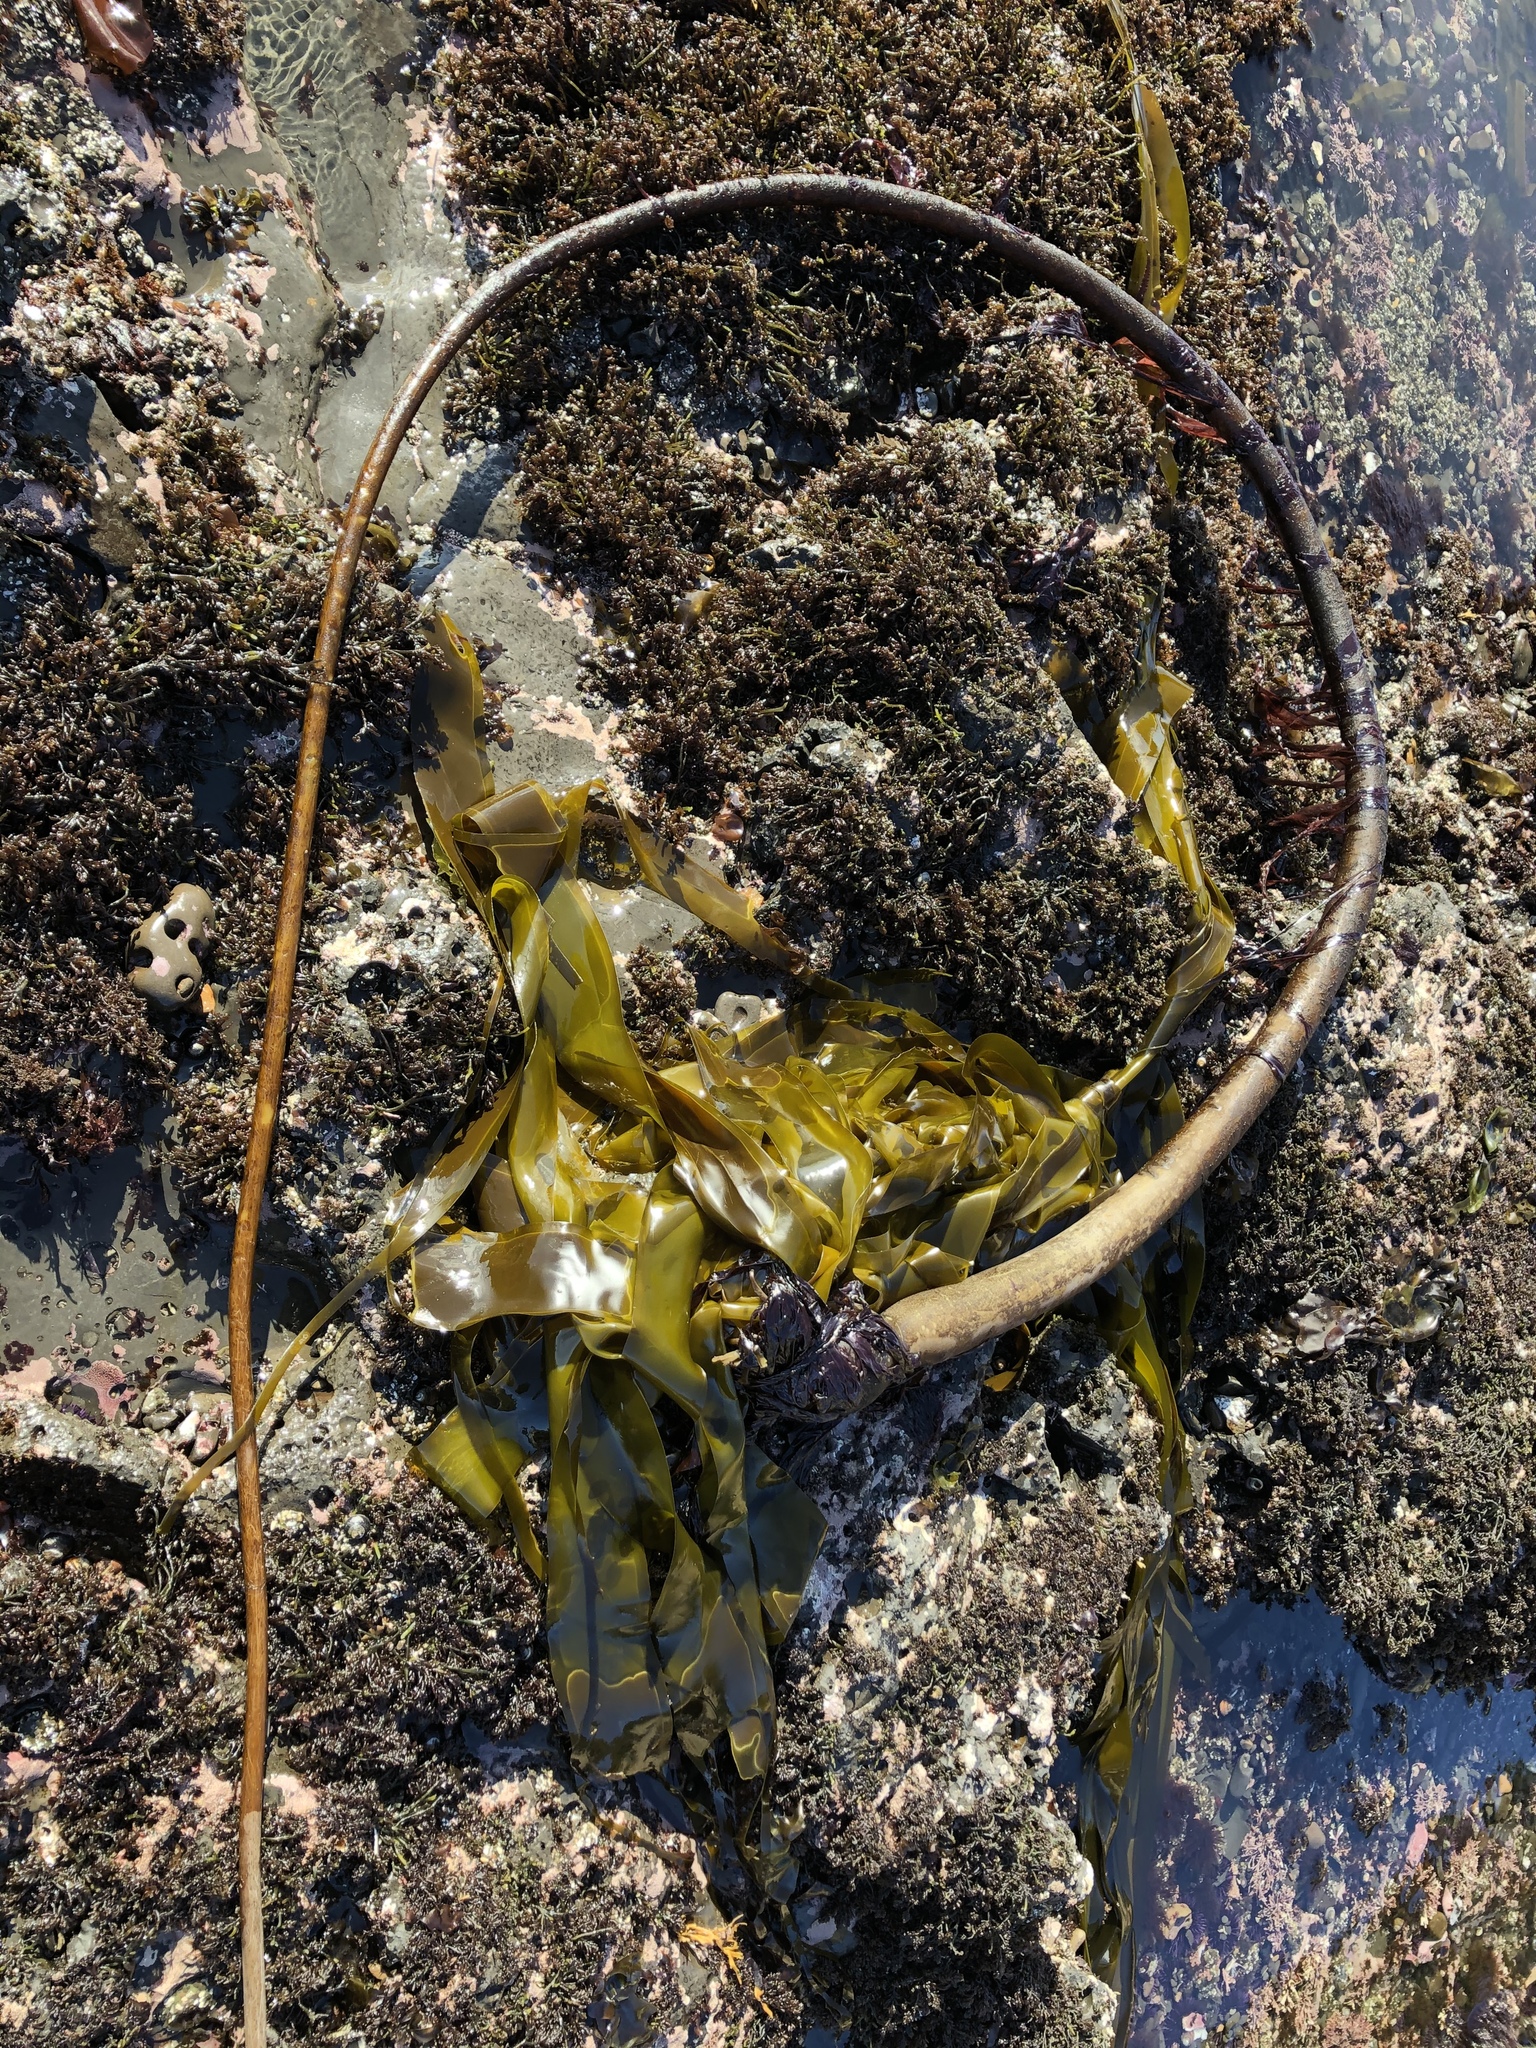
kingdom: Chromista
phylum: Ochrophyta
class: Phaeophyceae
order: Laminariales
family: Laminariaceae
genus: Nereocystis
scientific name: Nereocystis luetkeana
